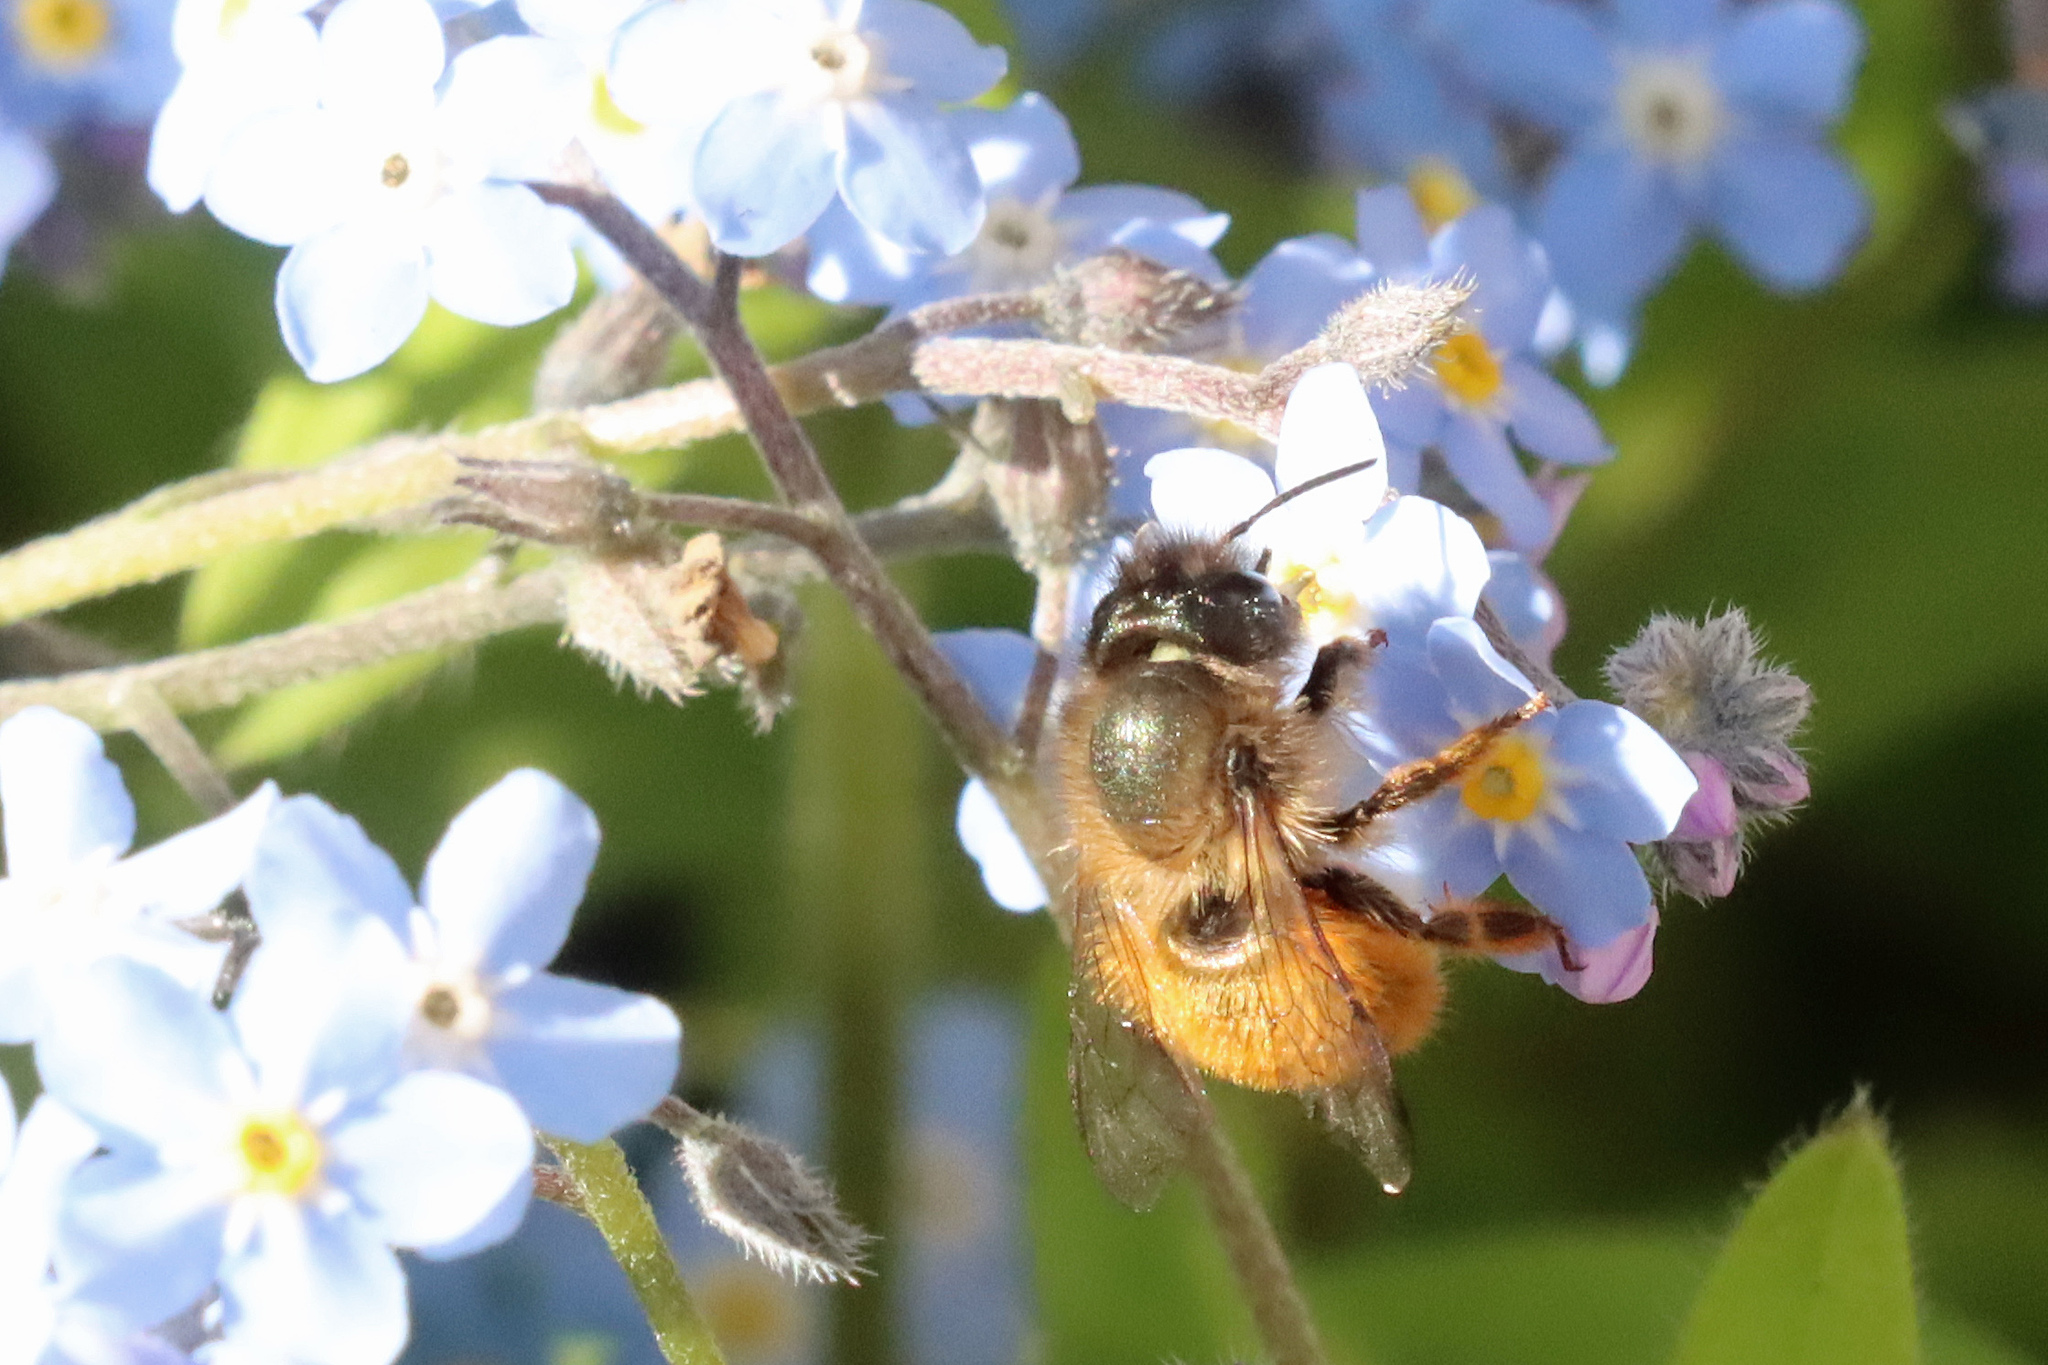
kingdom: Animalia
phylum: Arthropoda
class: Insecta
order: Hymenoptera
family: Megachilidae
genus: Osmia
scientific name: Osmia bicornis
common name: Red mason bee
